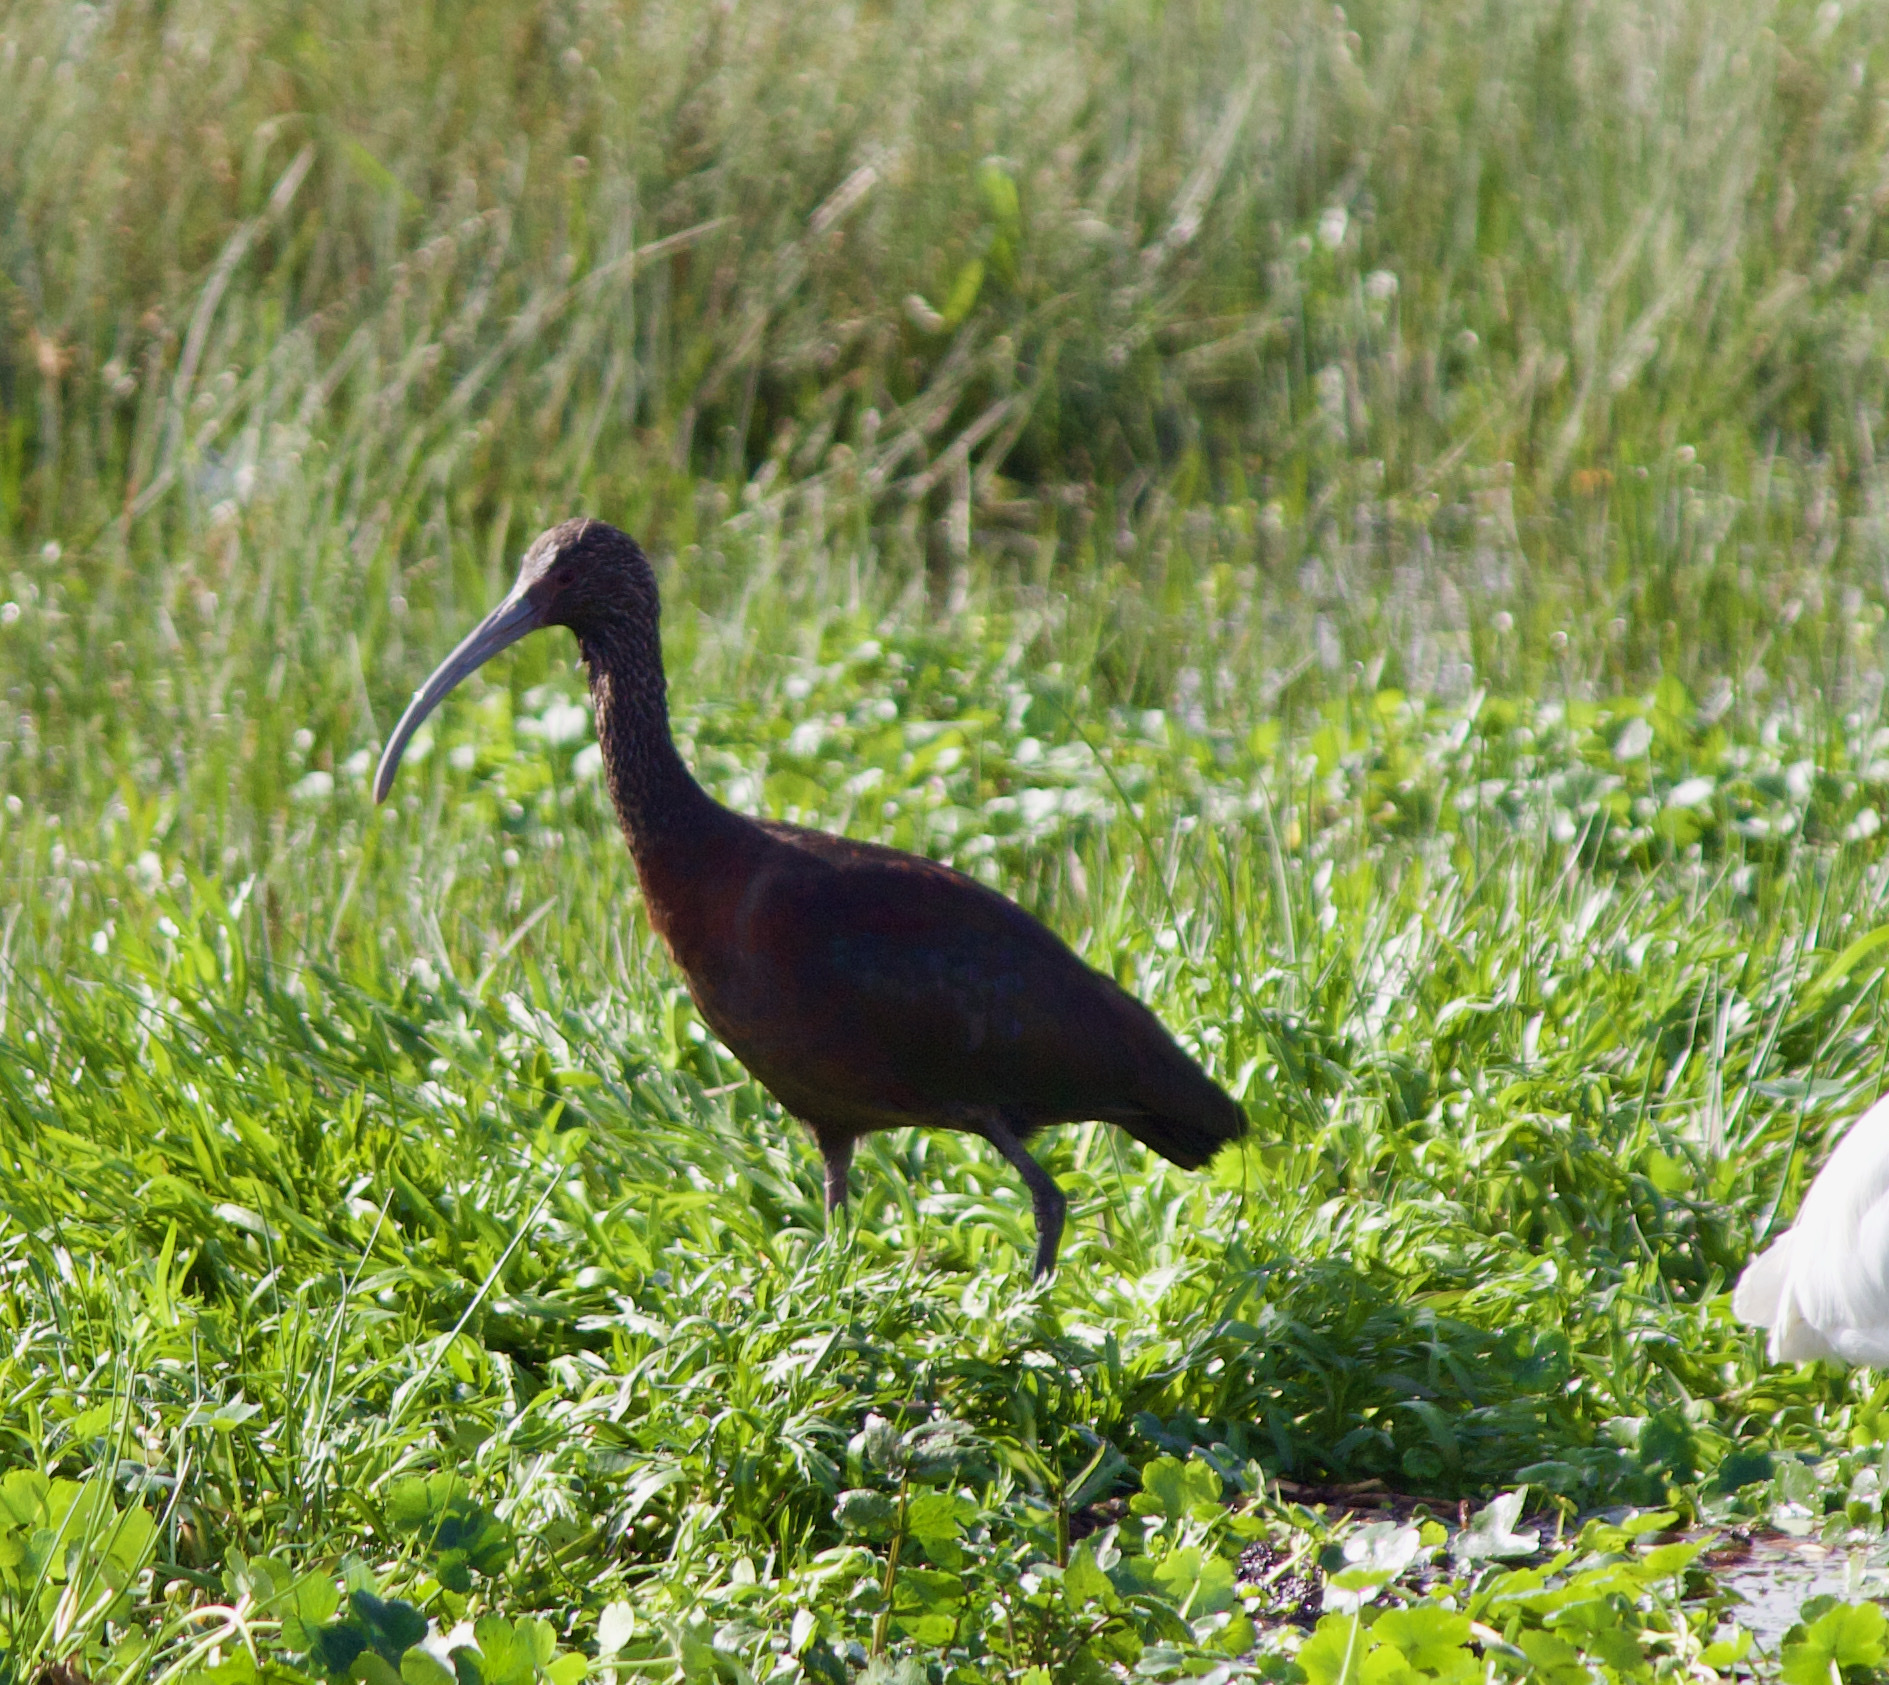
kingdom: Animalia
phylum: Chordata
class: Aves
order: Pelecaniformes
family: Threskiornithidae
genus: Plegadis
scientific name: Plegadis chihi
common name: White-faced ibis
